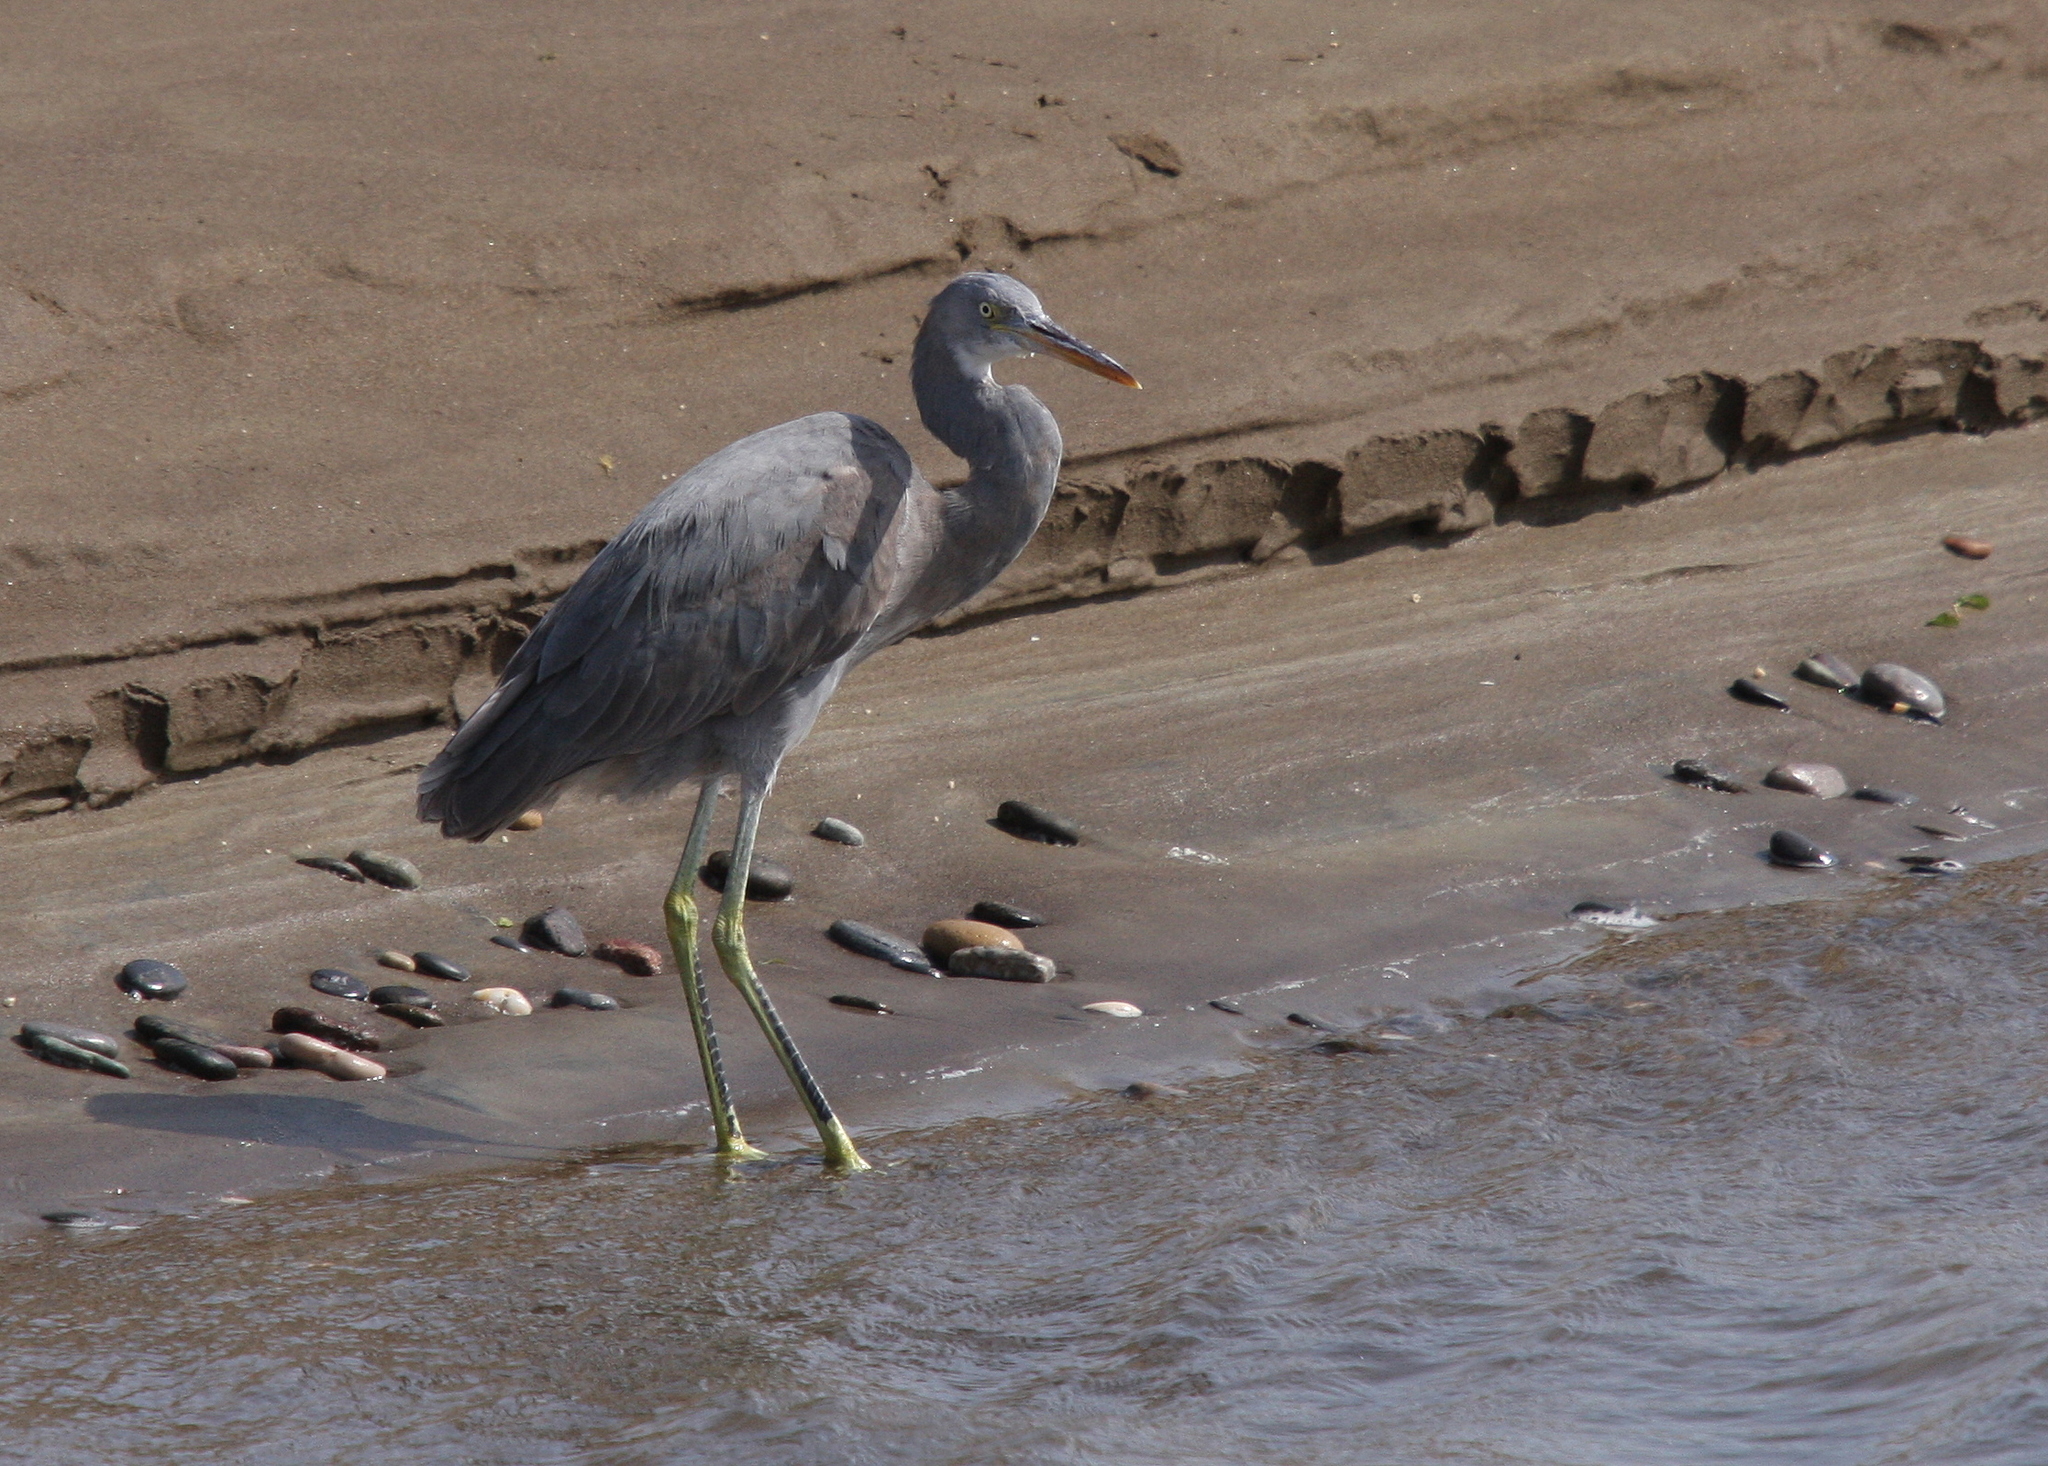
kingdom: Animalia
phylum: Chordata
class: Aves
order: Pelecaniformes
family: Ardeidae
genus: Egretta
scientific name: Egretta gularis
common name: Western reef-heron
